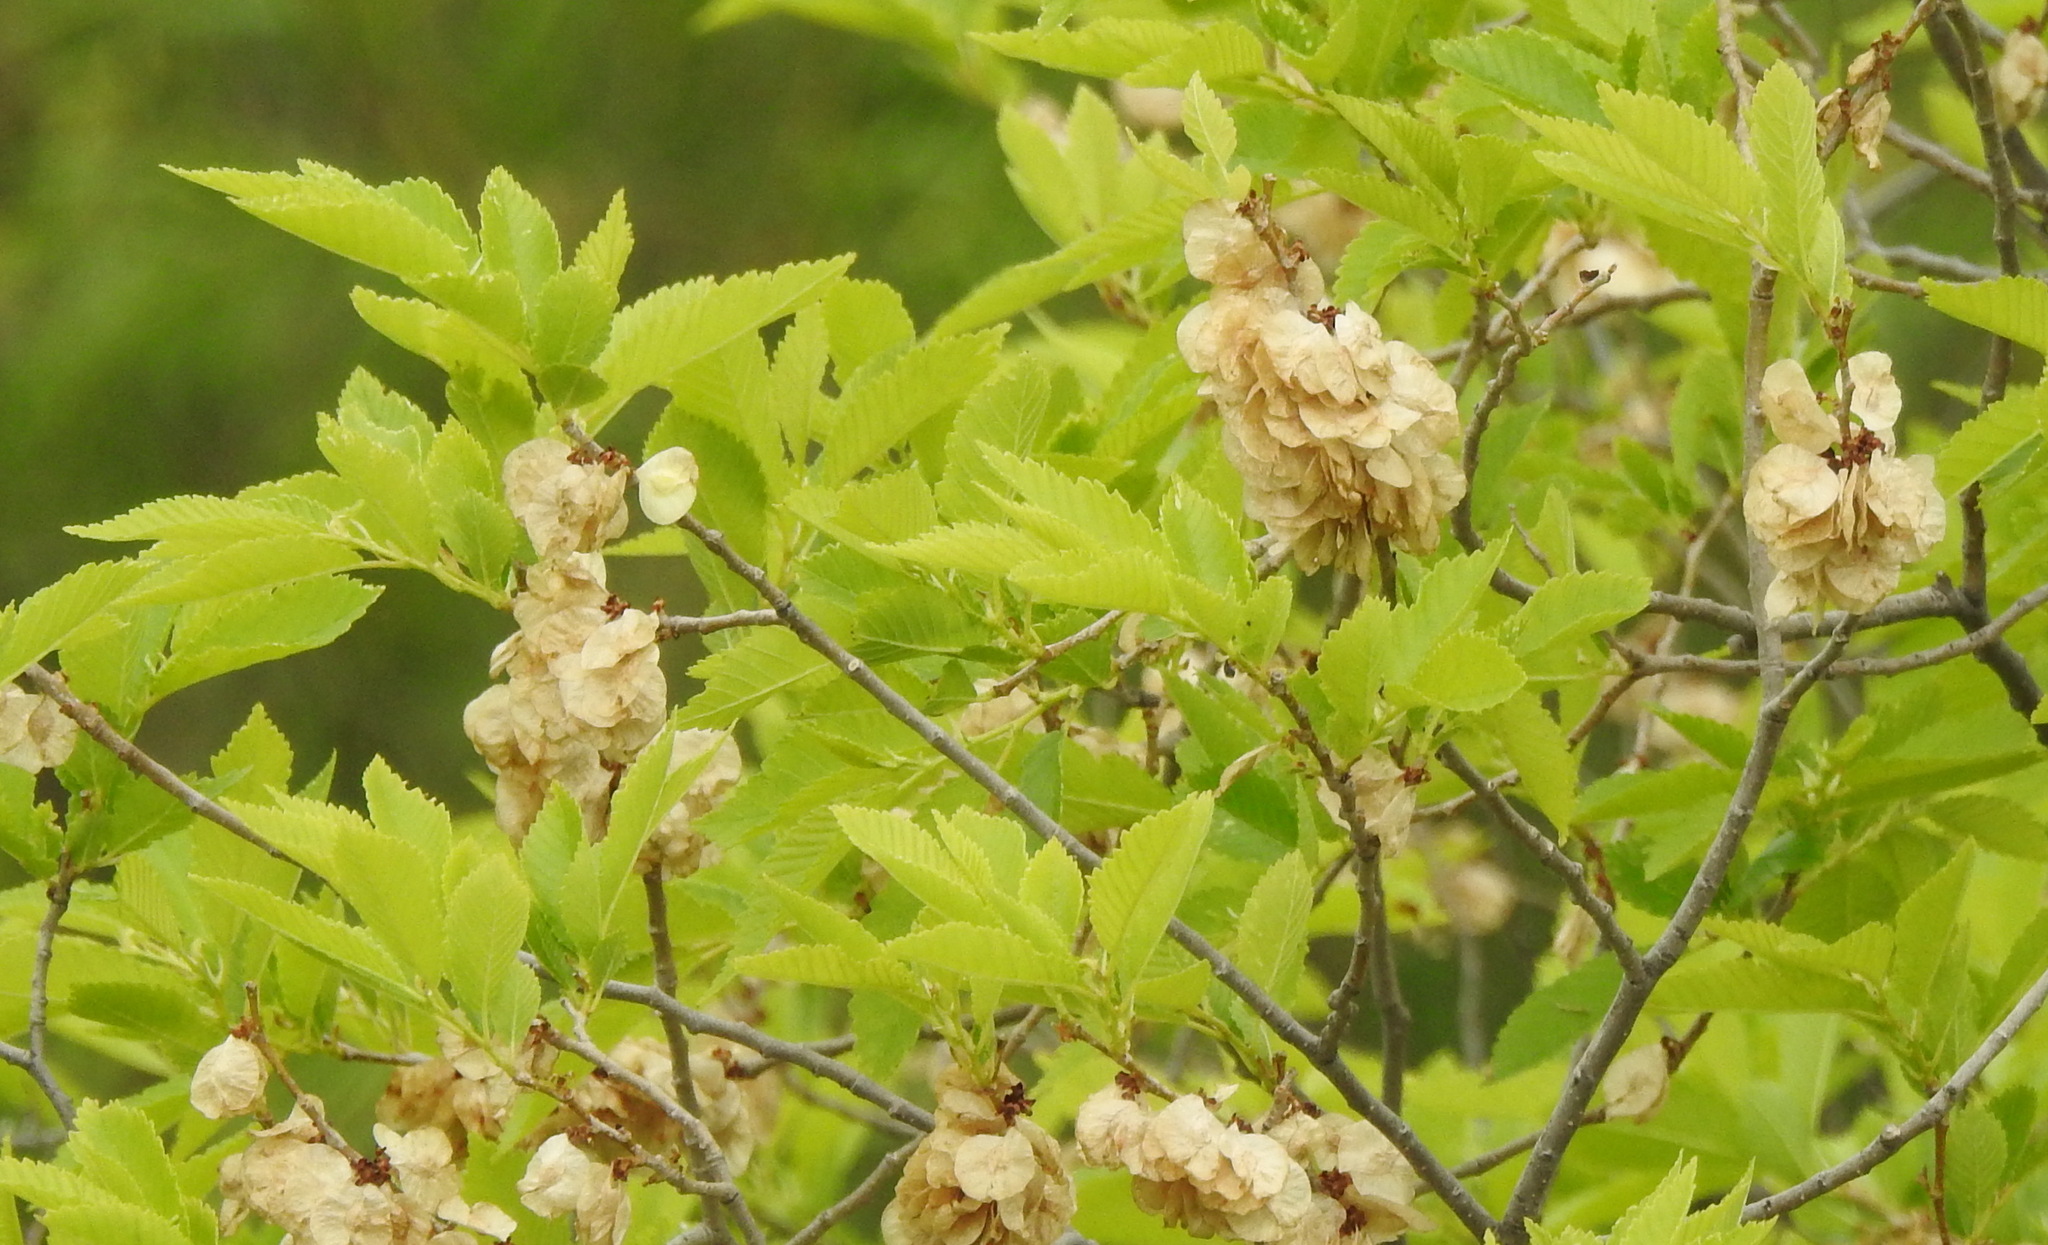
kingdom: Plantae
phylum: Tracheophyta
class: Magnoliopsida
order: Rosales
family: Ulmaceae
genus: Ulmus
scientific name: Ulmus pumila
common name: Siberian elm
